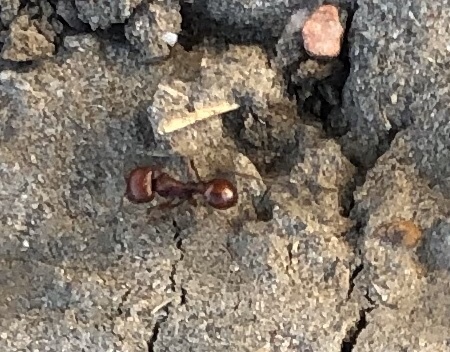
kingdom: Animalia
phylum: Arthropoda
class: Insecta
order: Hymenoptera
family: Formicidae
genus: Pogonomyrmex
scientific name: Pogonomyrmex barbatus
